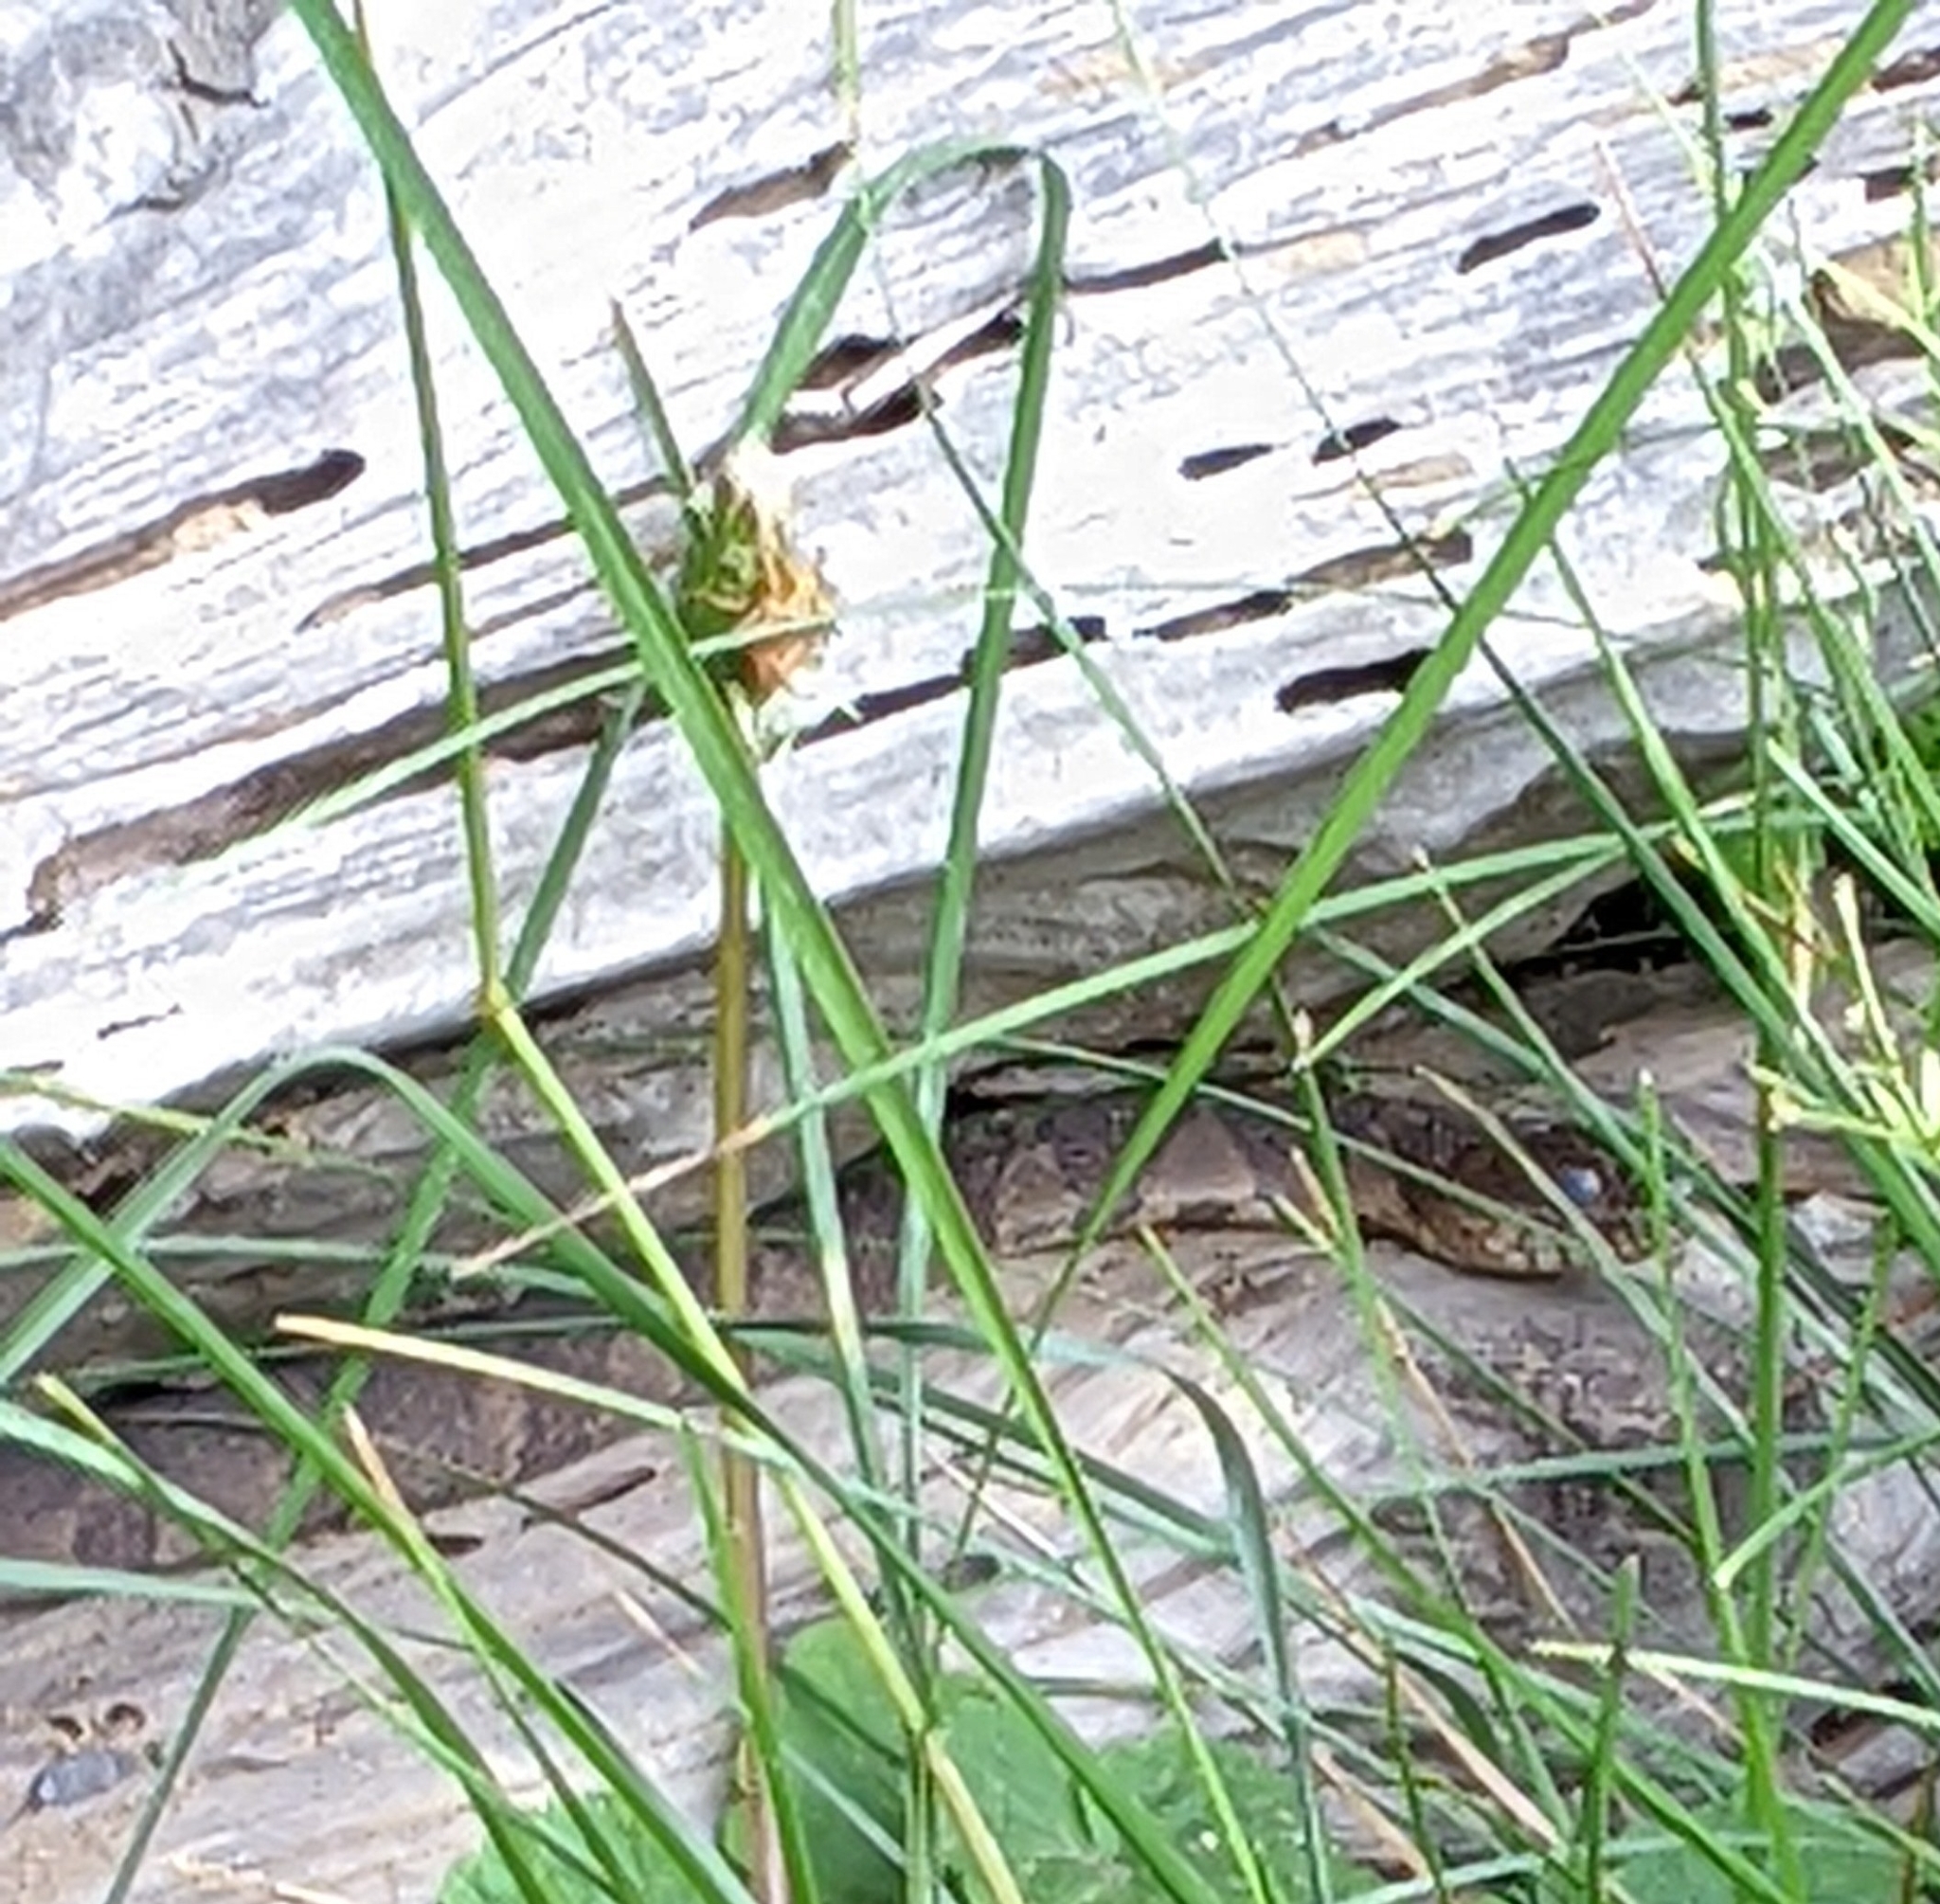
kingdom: Animalia
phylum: Chordata
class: Squamata
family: Colubridae
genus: Nerodia
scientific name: Nerodia sipedon
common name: Northern water snake
